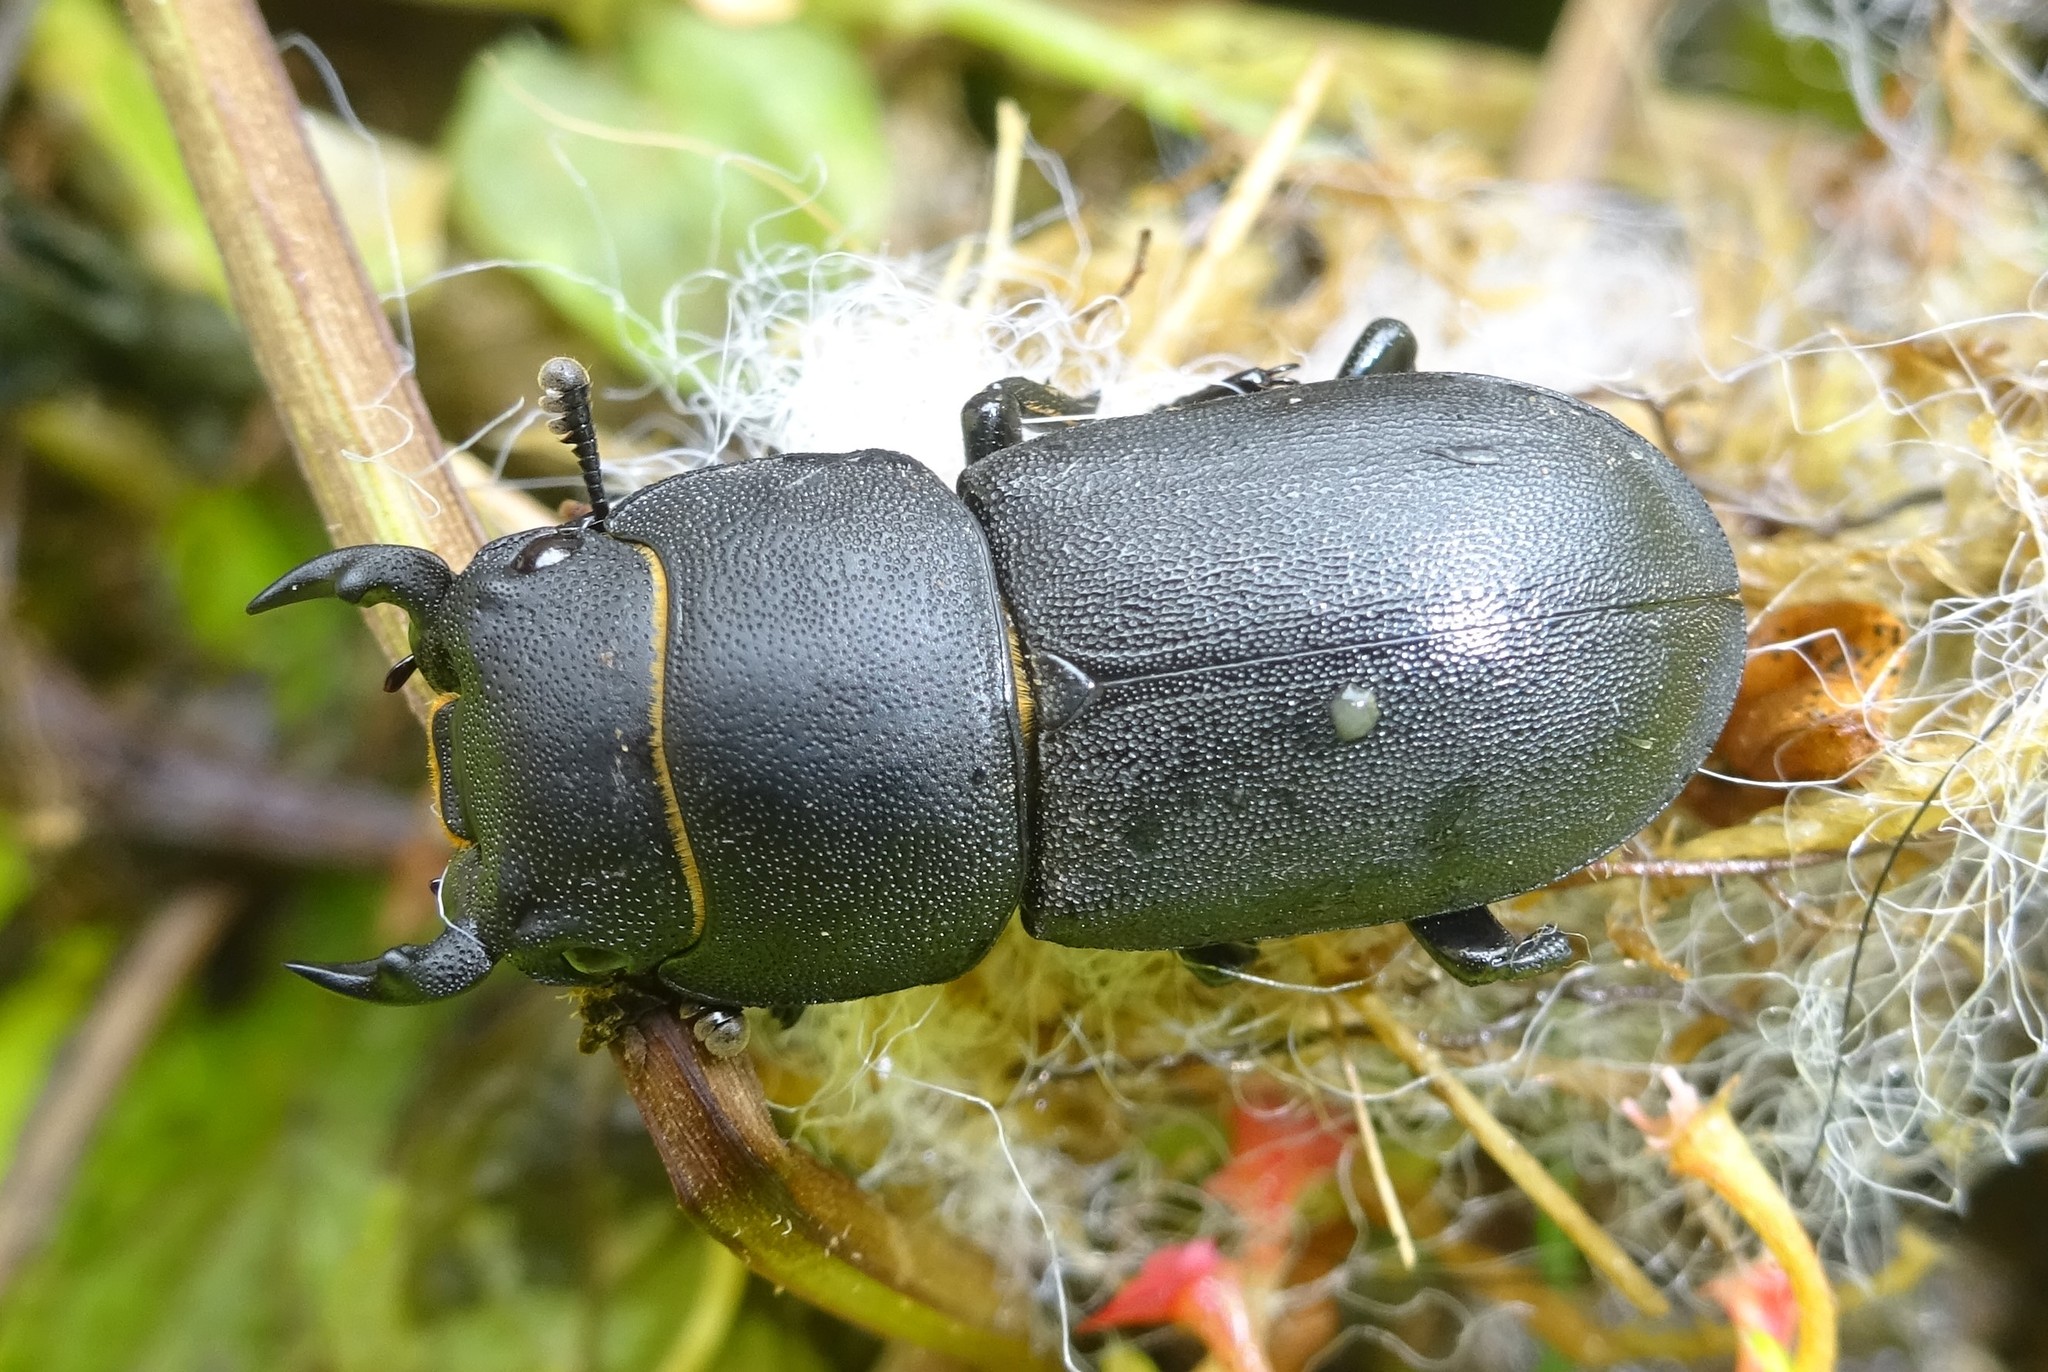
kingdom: Animalia
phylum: Arthropoda
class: Insecta
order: Coleoptera
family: Lucanidae
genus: Dorcus
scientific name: Dorcus parallelipipedus
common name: Lesser stag beetle
